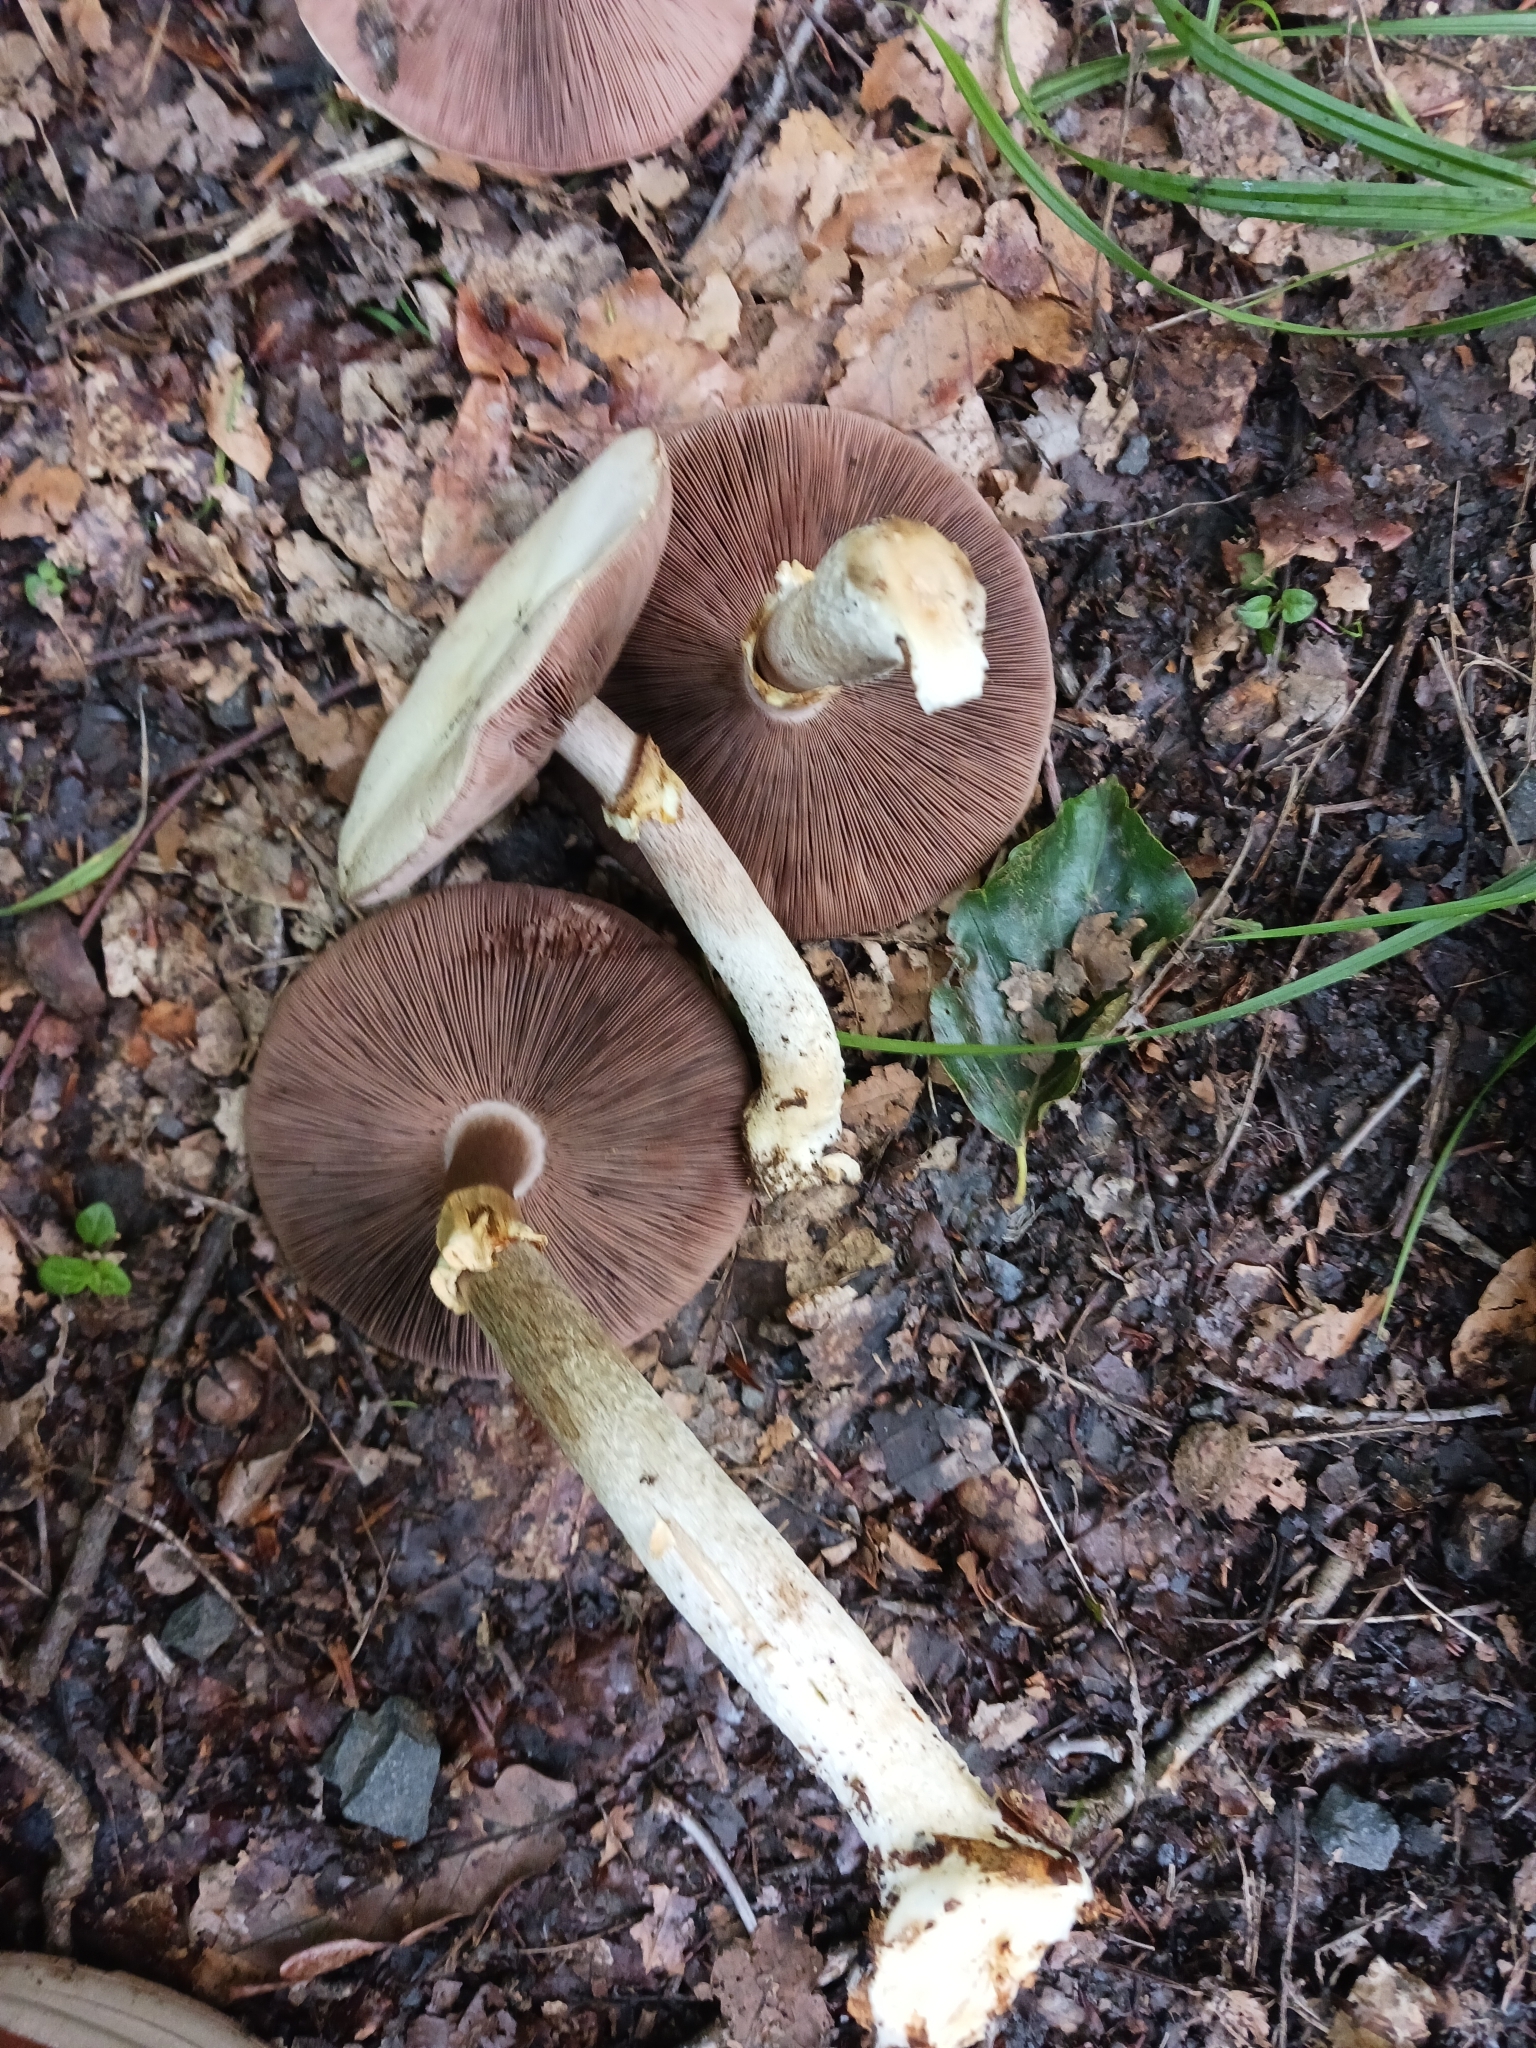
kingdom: Fungi
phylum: Basidiomycota
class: Agaricomycetes
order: Agaricales
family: Agaricaceae
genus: Agaricus
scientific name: Agaricus sylvicola
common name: Wood mushroom
